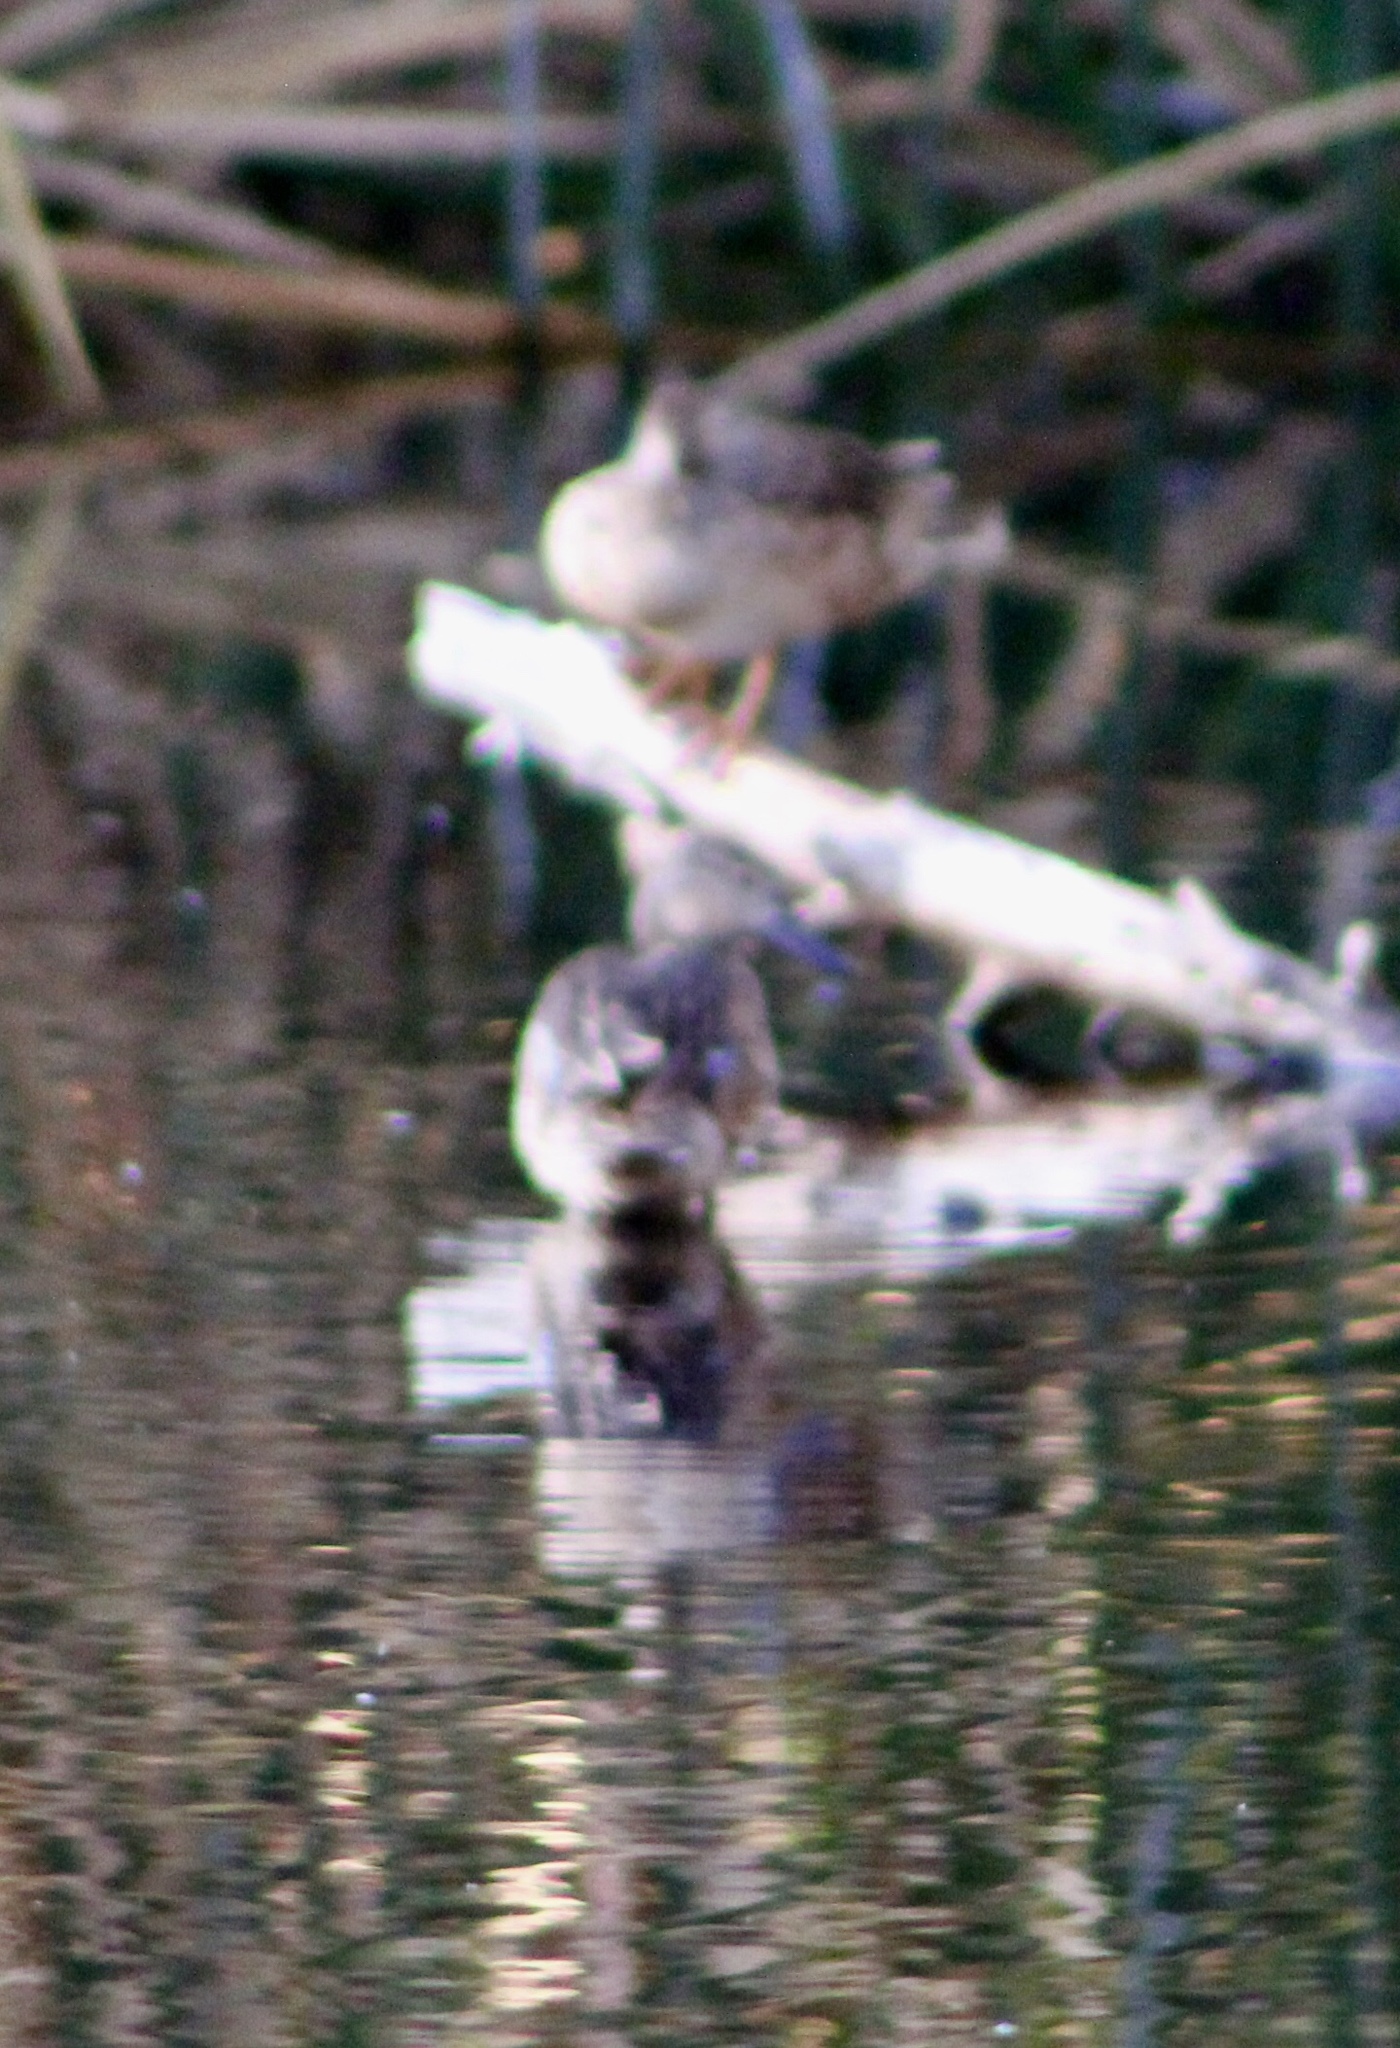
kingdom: Animalia
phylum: Chordata
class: Aves
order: Anseriformes
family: Anatidae
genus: Spatula
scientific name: Spatula discors
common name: Blue-winged teal
